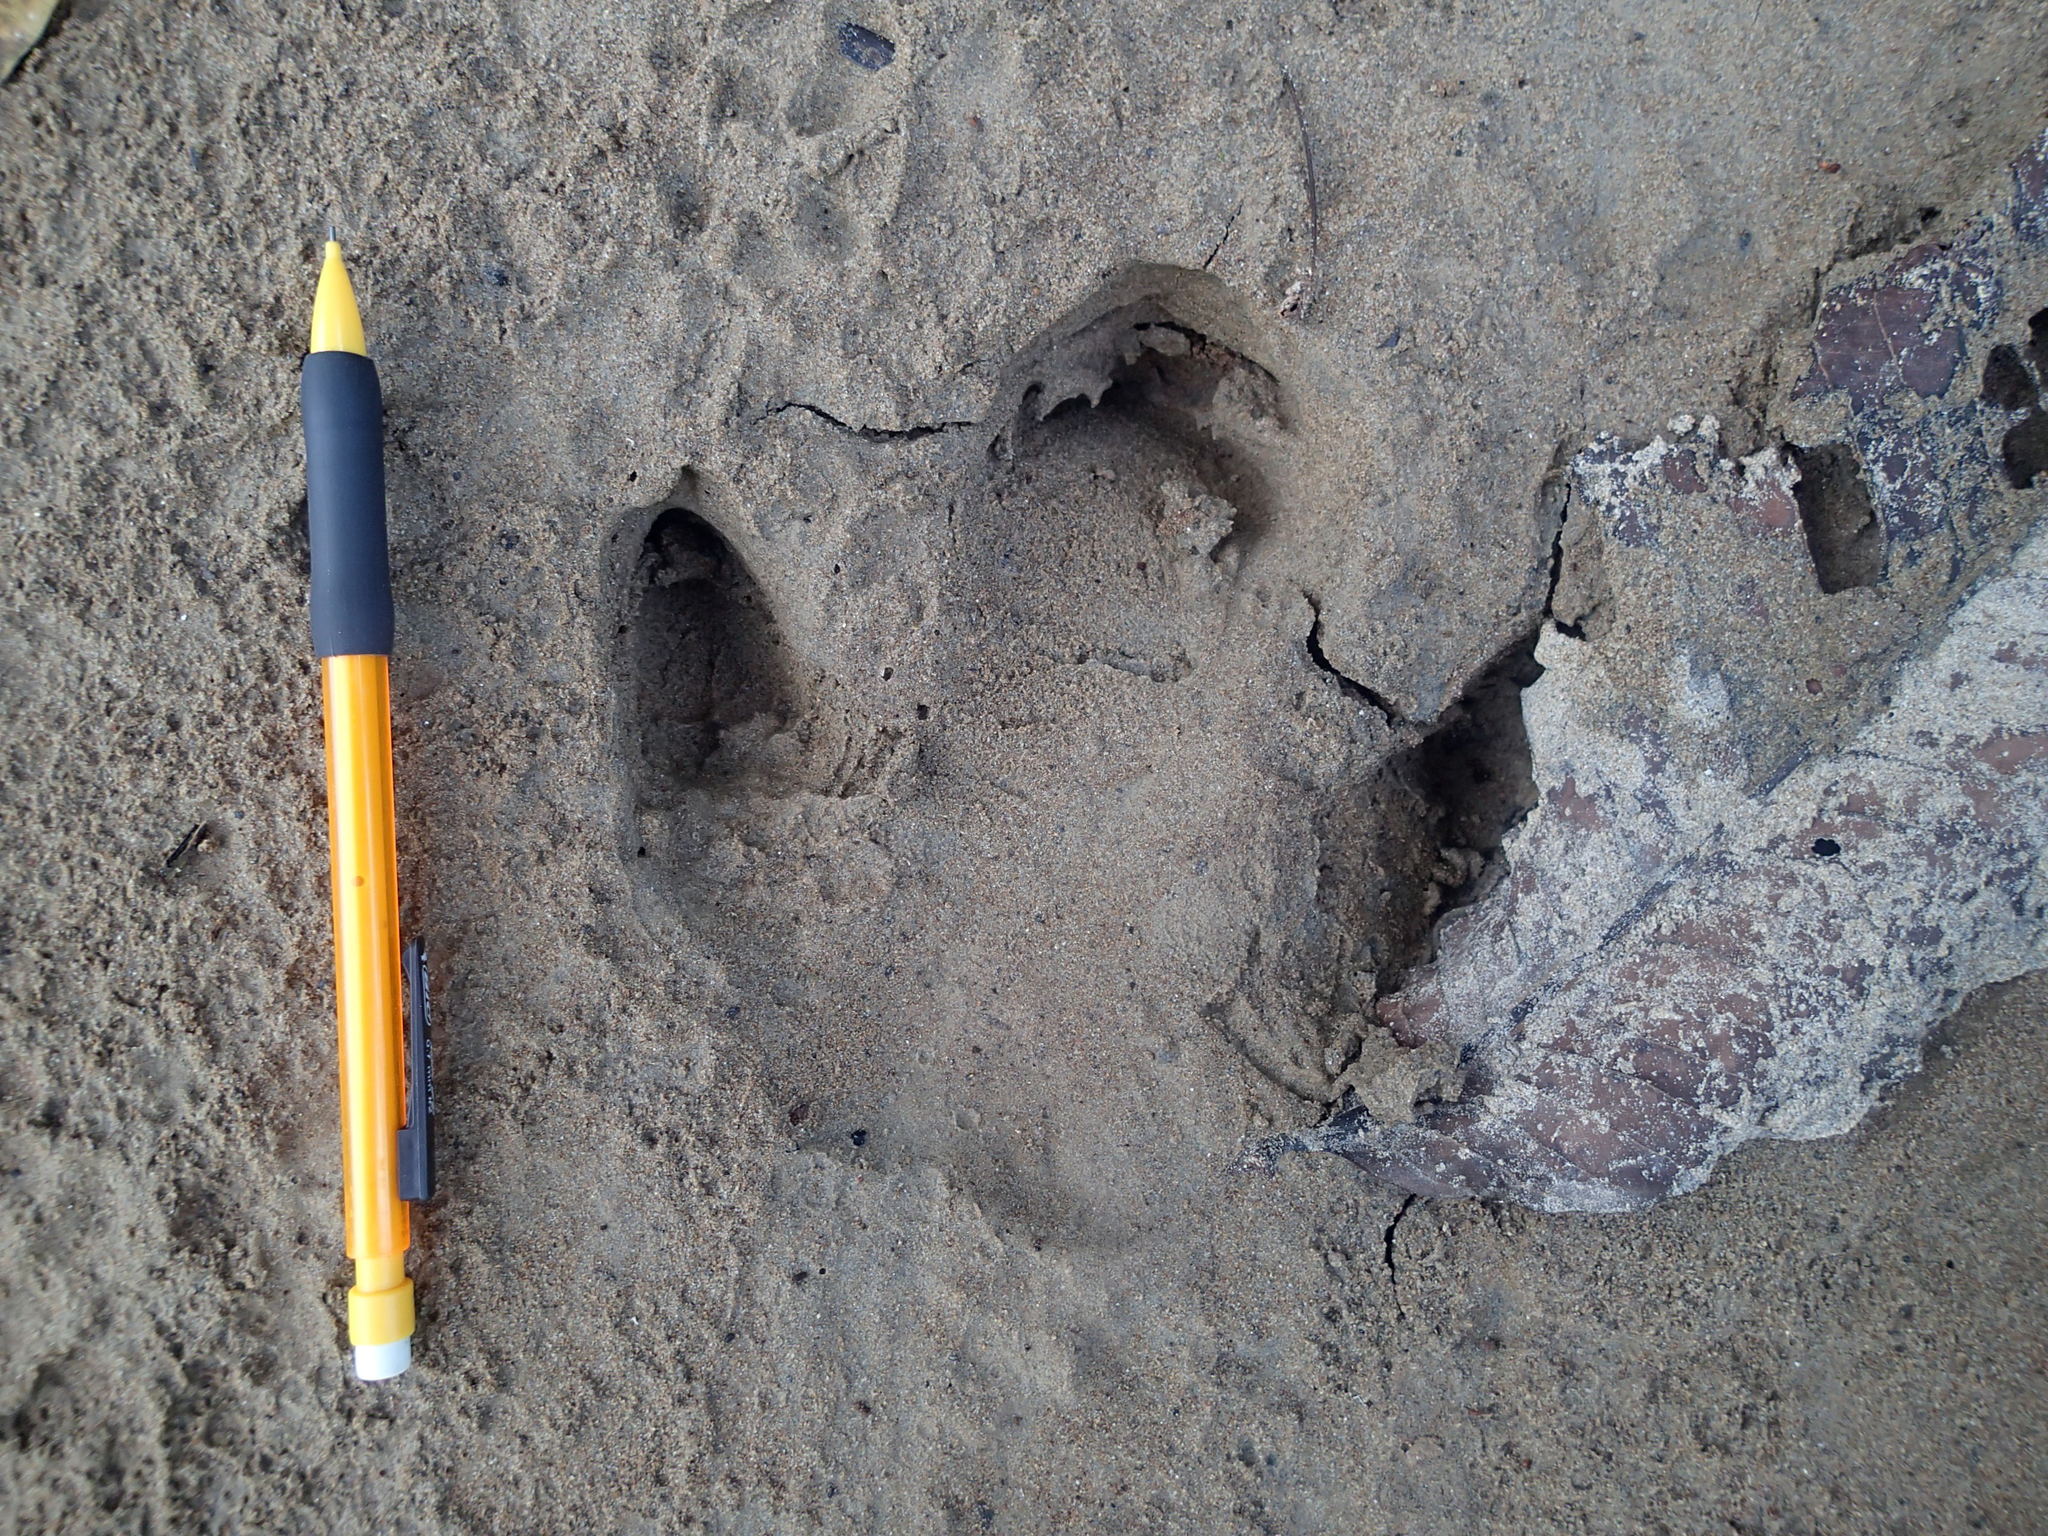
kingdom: Animalia
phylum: Chordata
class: Mammalia
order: Perissodactyla
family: Tapiridae
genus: Tapirus
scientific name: Tapirus terrestris
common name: Brazilian tapir
